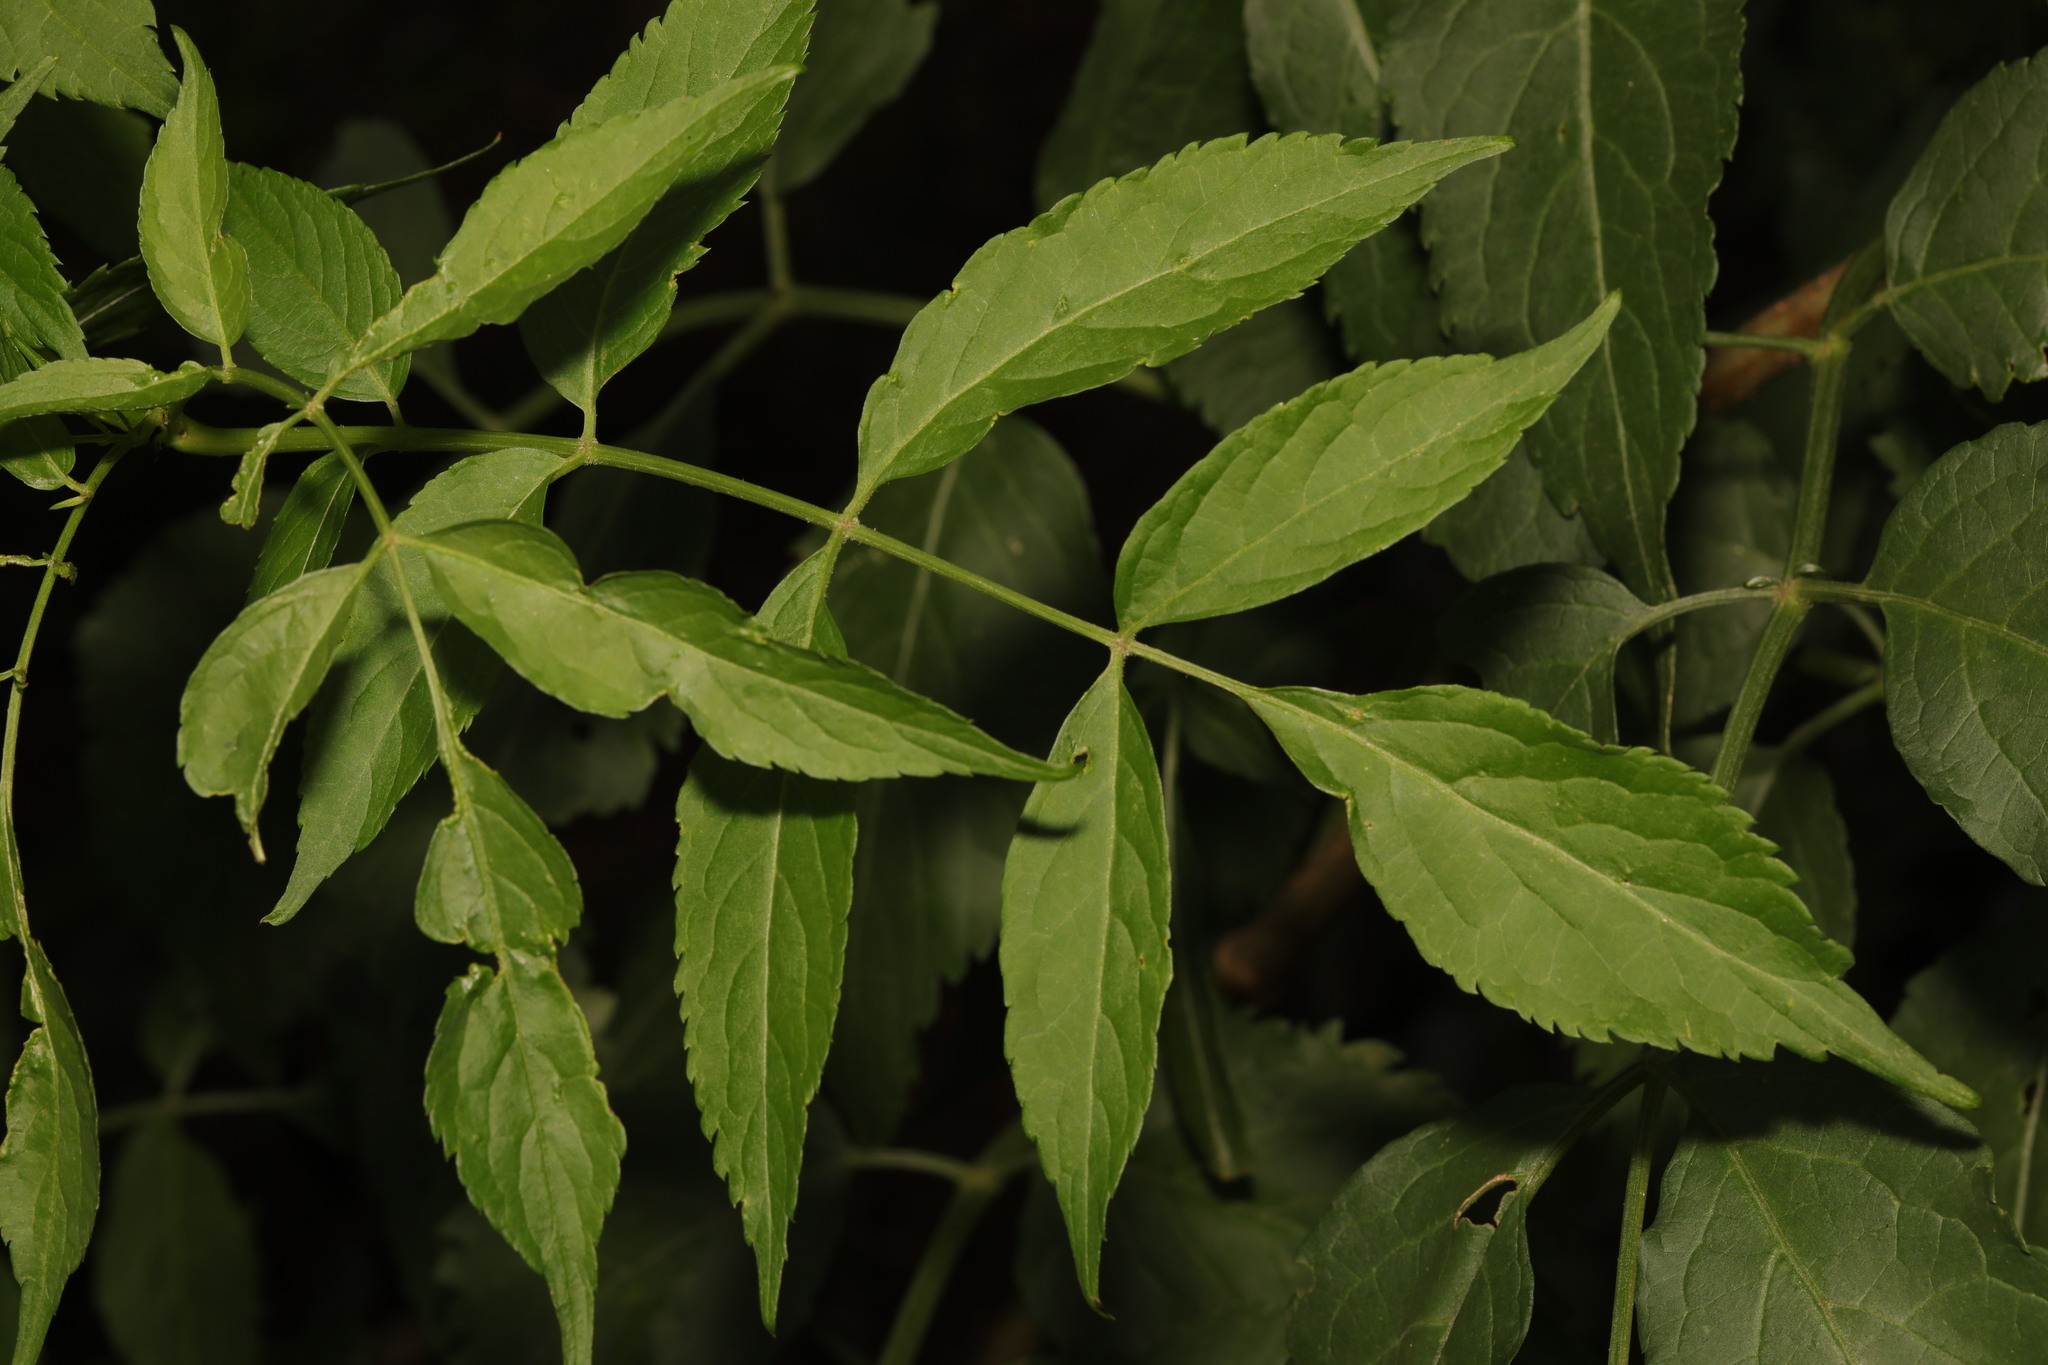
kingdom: Plantae
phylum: Tracheophyta
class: Magnoliopsida
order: Dipsacales
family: Viburnaceae
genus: Sambucus
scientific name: Sambucus nigra
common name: Elder
